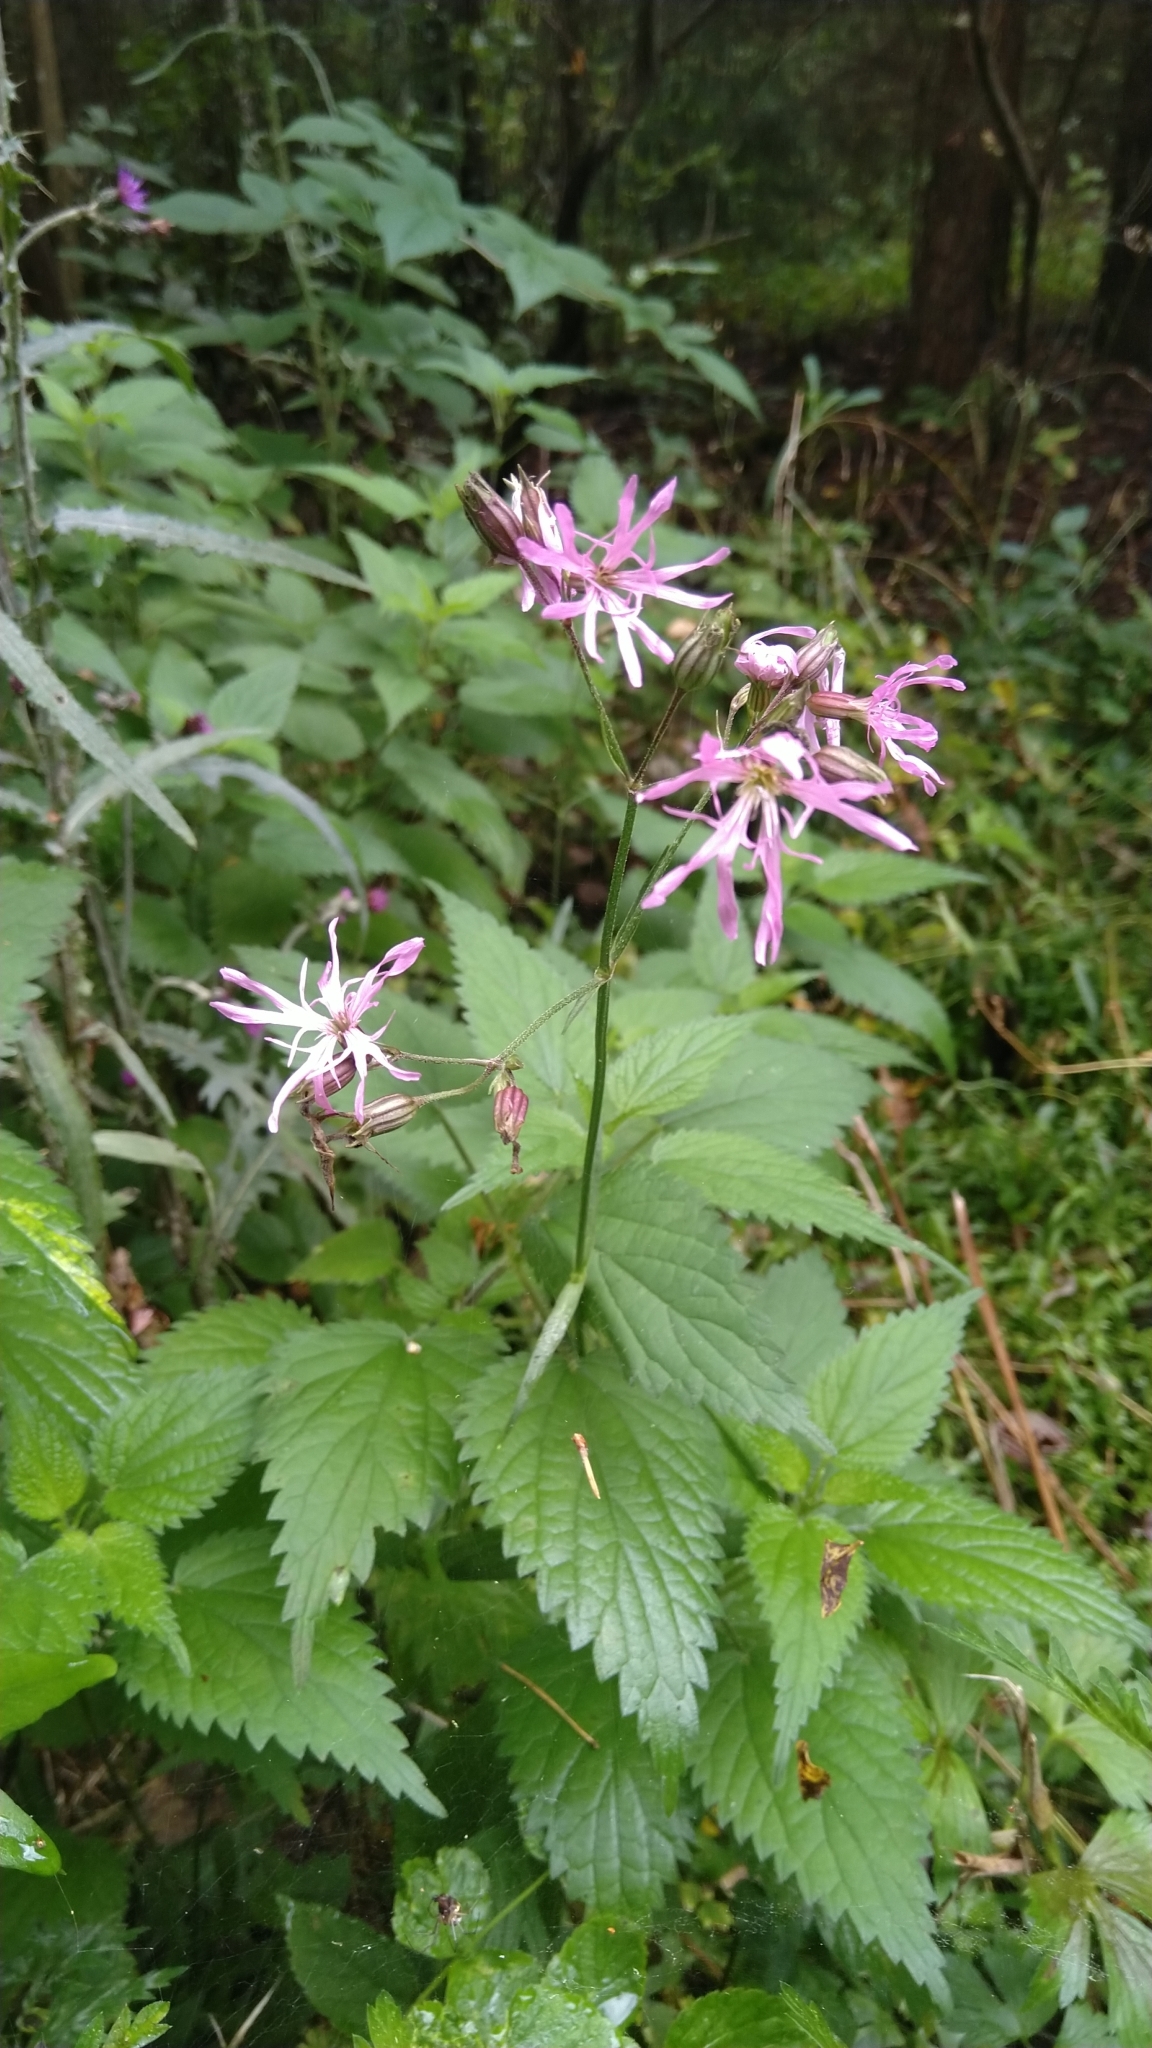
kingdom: Plantae
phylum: Tracheophyta
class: Magnoliopsida
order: Caryophyllales
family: Caryophyllaceae
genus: Silene
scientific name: Silene flos-cuculi
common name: Ragged-robin
